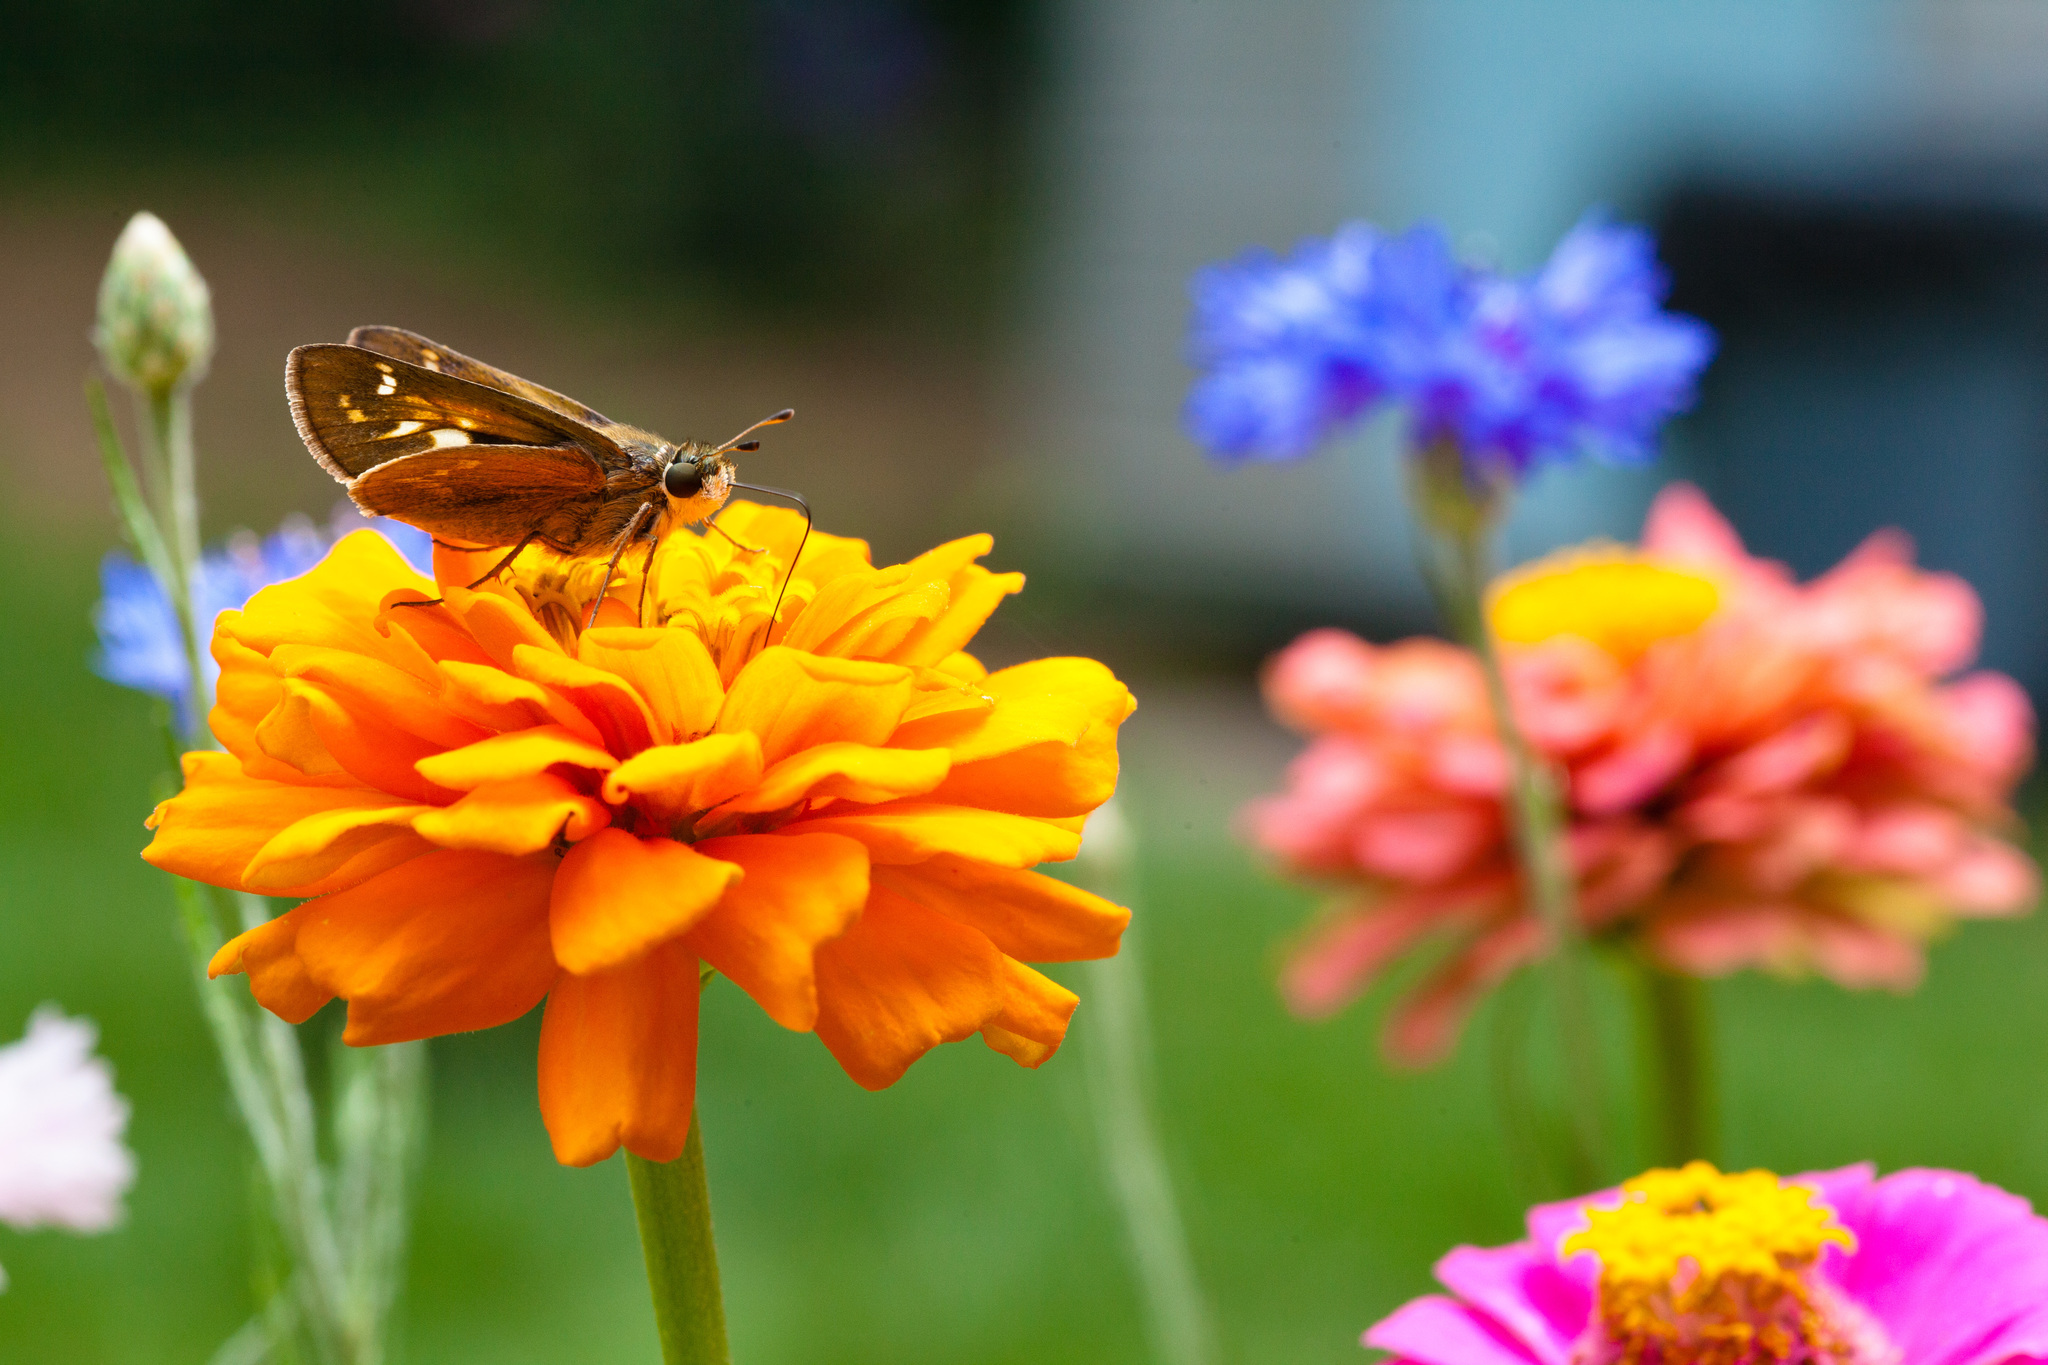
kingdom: Animalia
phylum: Arthropoda
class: Insecta
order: Lepidoptera
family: Hesperiidae
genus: Atalopedes
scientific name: Atalopedes
